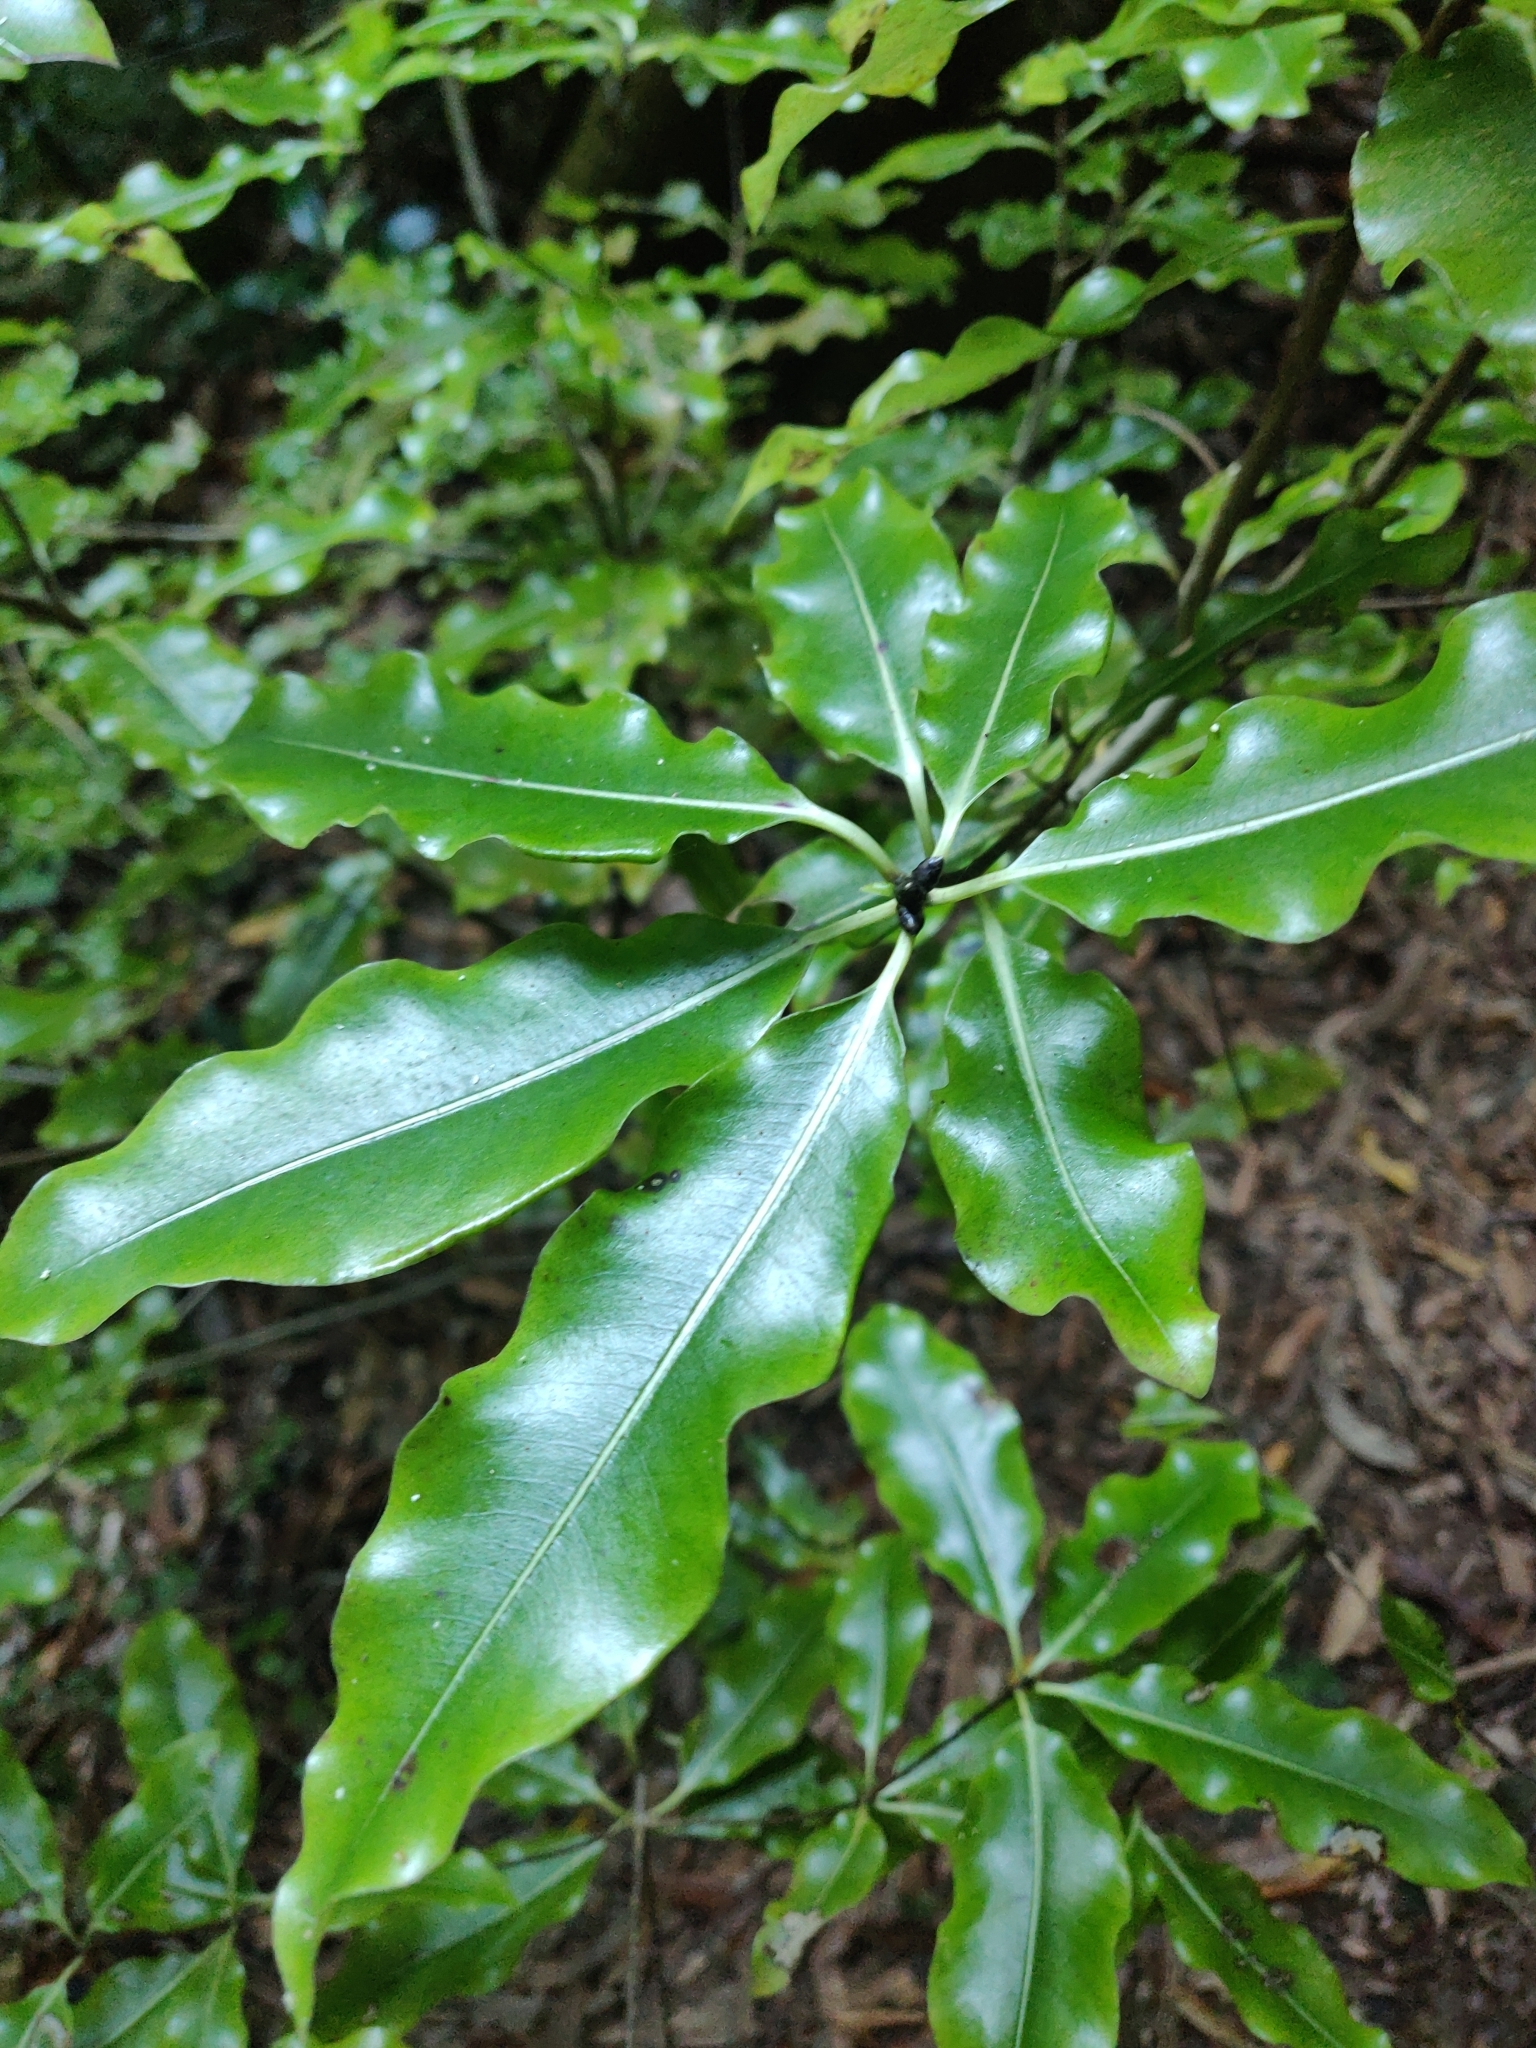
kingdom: Plantae
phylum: Tracheophyta
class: Magnoliopsida
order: Apiales
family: Pittosporaceae
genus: Pittosporum
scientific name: Pittosporum eugenioides
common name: Lemonwood
